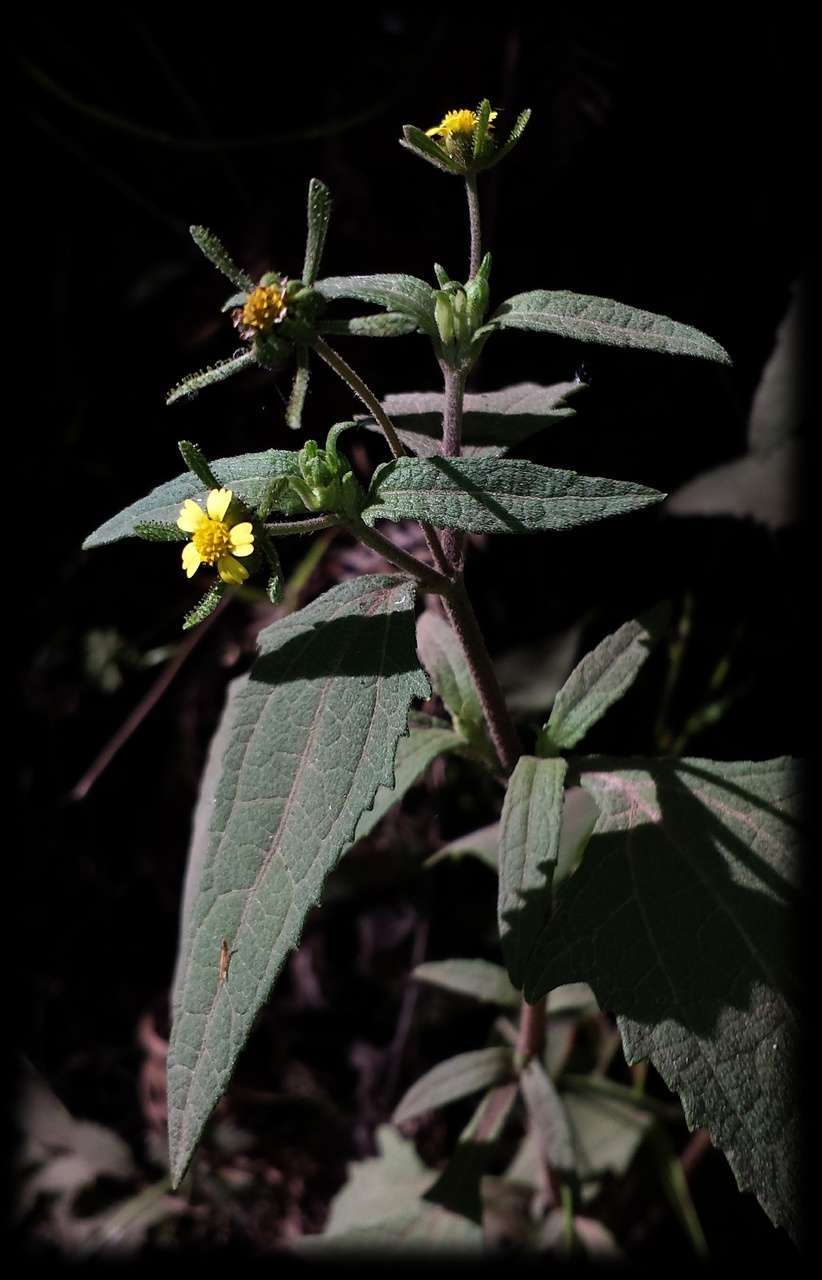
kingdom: Plantae
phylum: Tracheophyta
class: Magnoliopsida
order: Asterales
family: Asteraceae
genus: Sigesbeckia
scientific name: Sigesbeckia orientalis
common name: Eastern st paul's-wort
